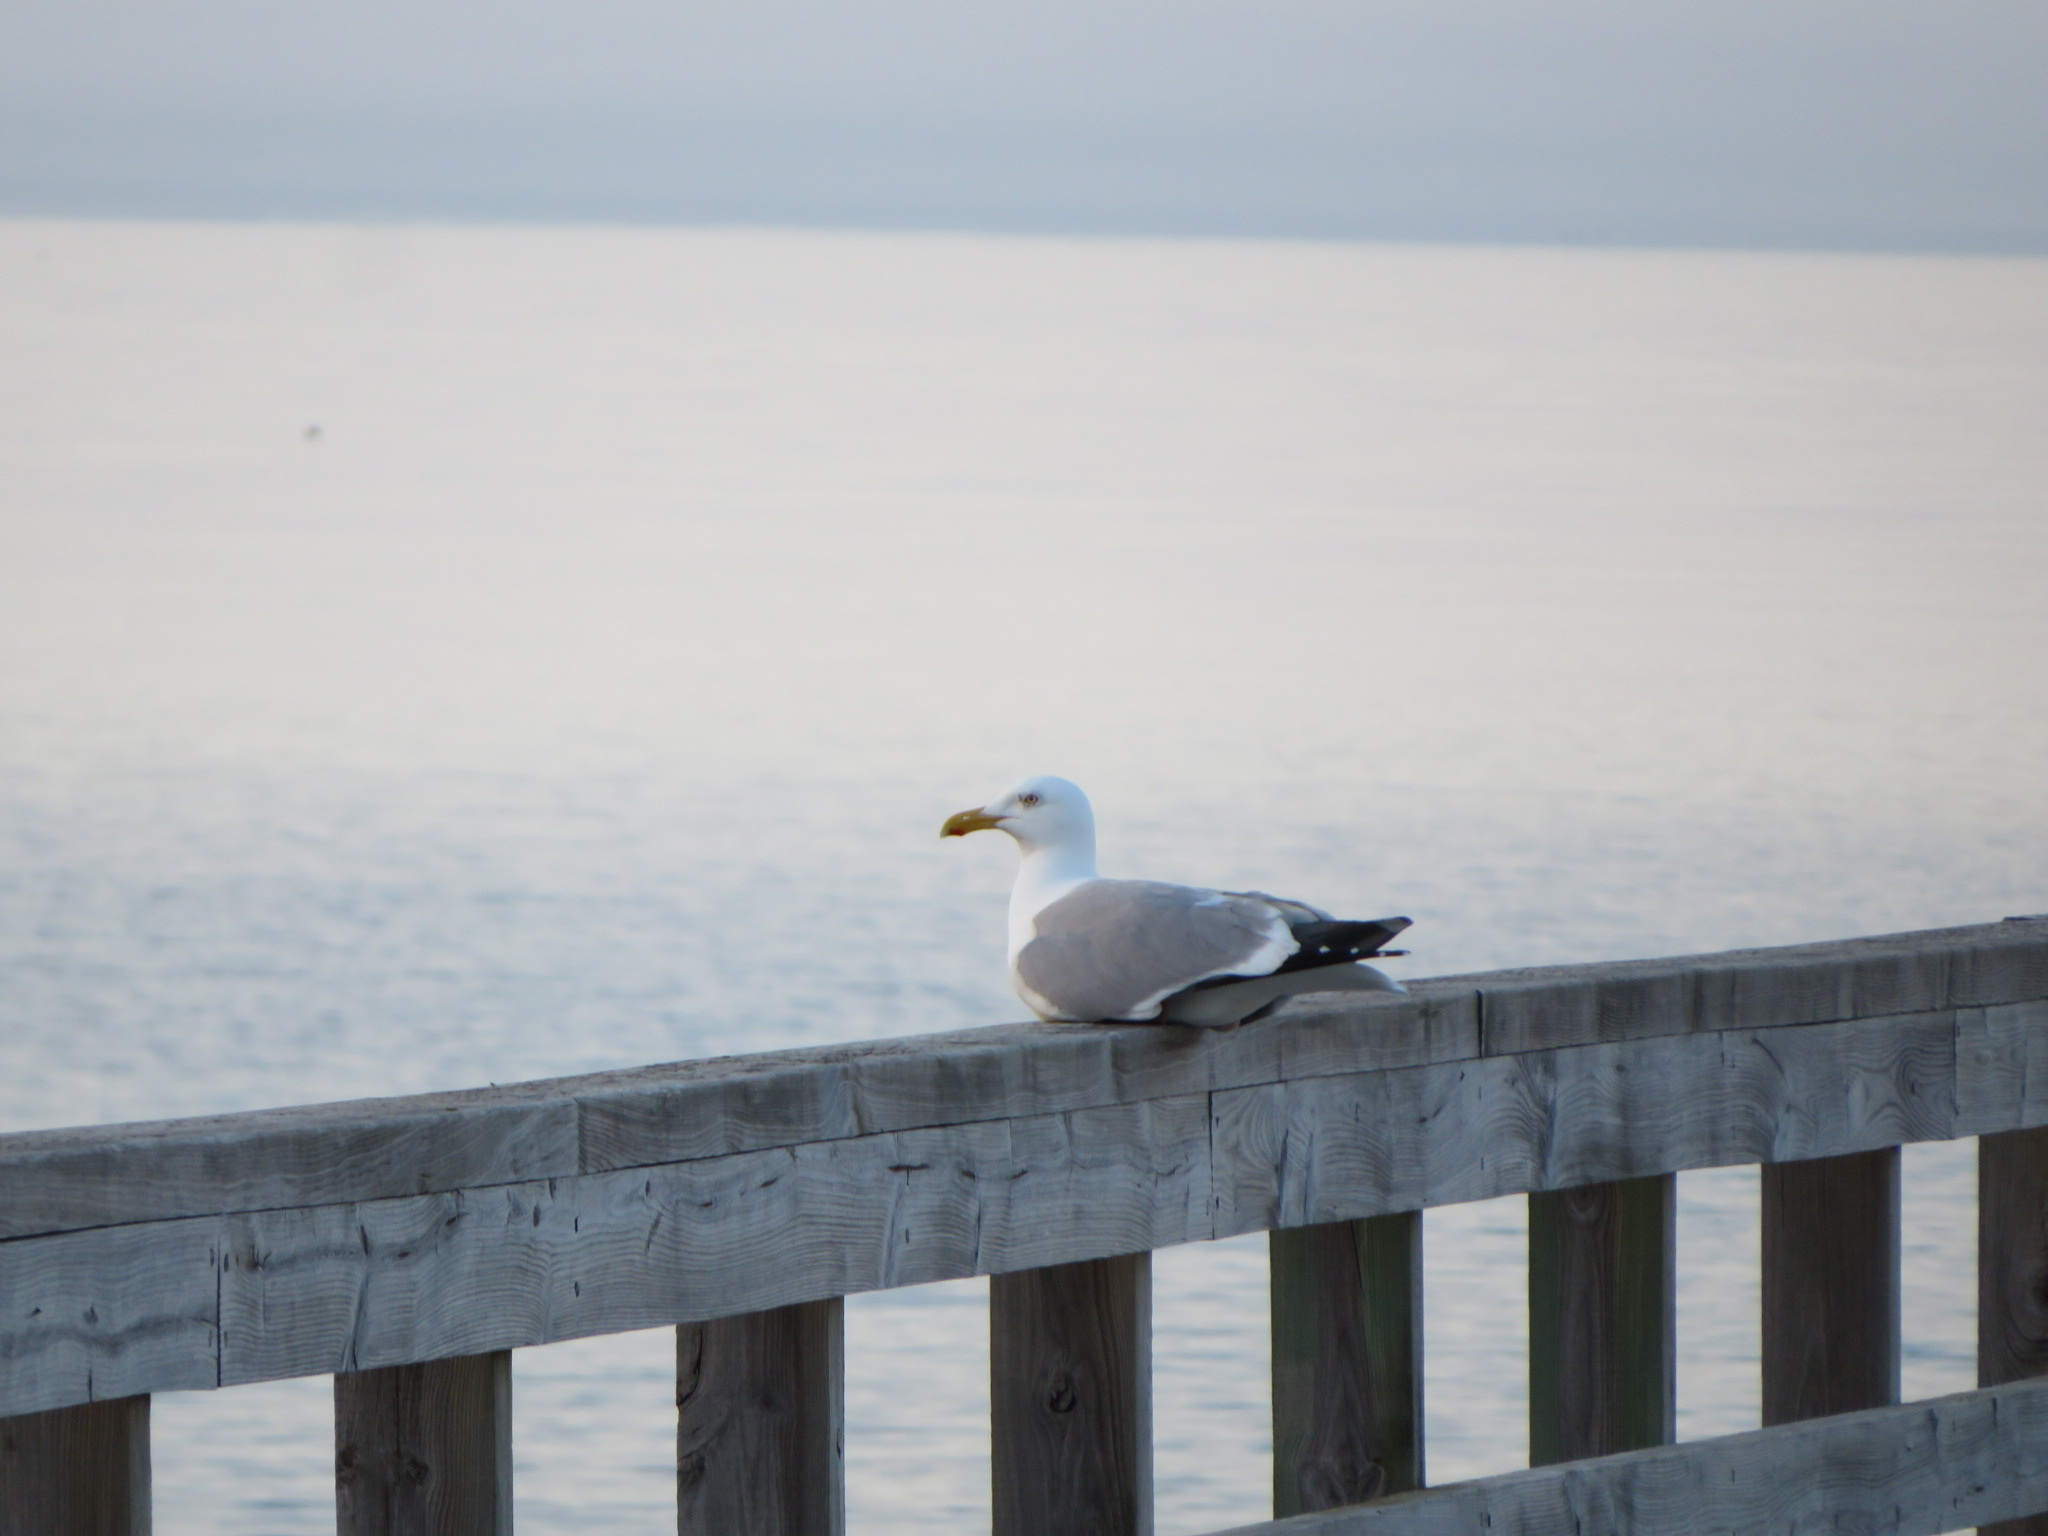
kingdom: Animalia
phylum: Chordata
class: Aves
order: Charadriiformes
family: Laridae
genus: Larus
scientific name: Larus argentatus
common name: Herring gull
